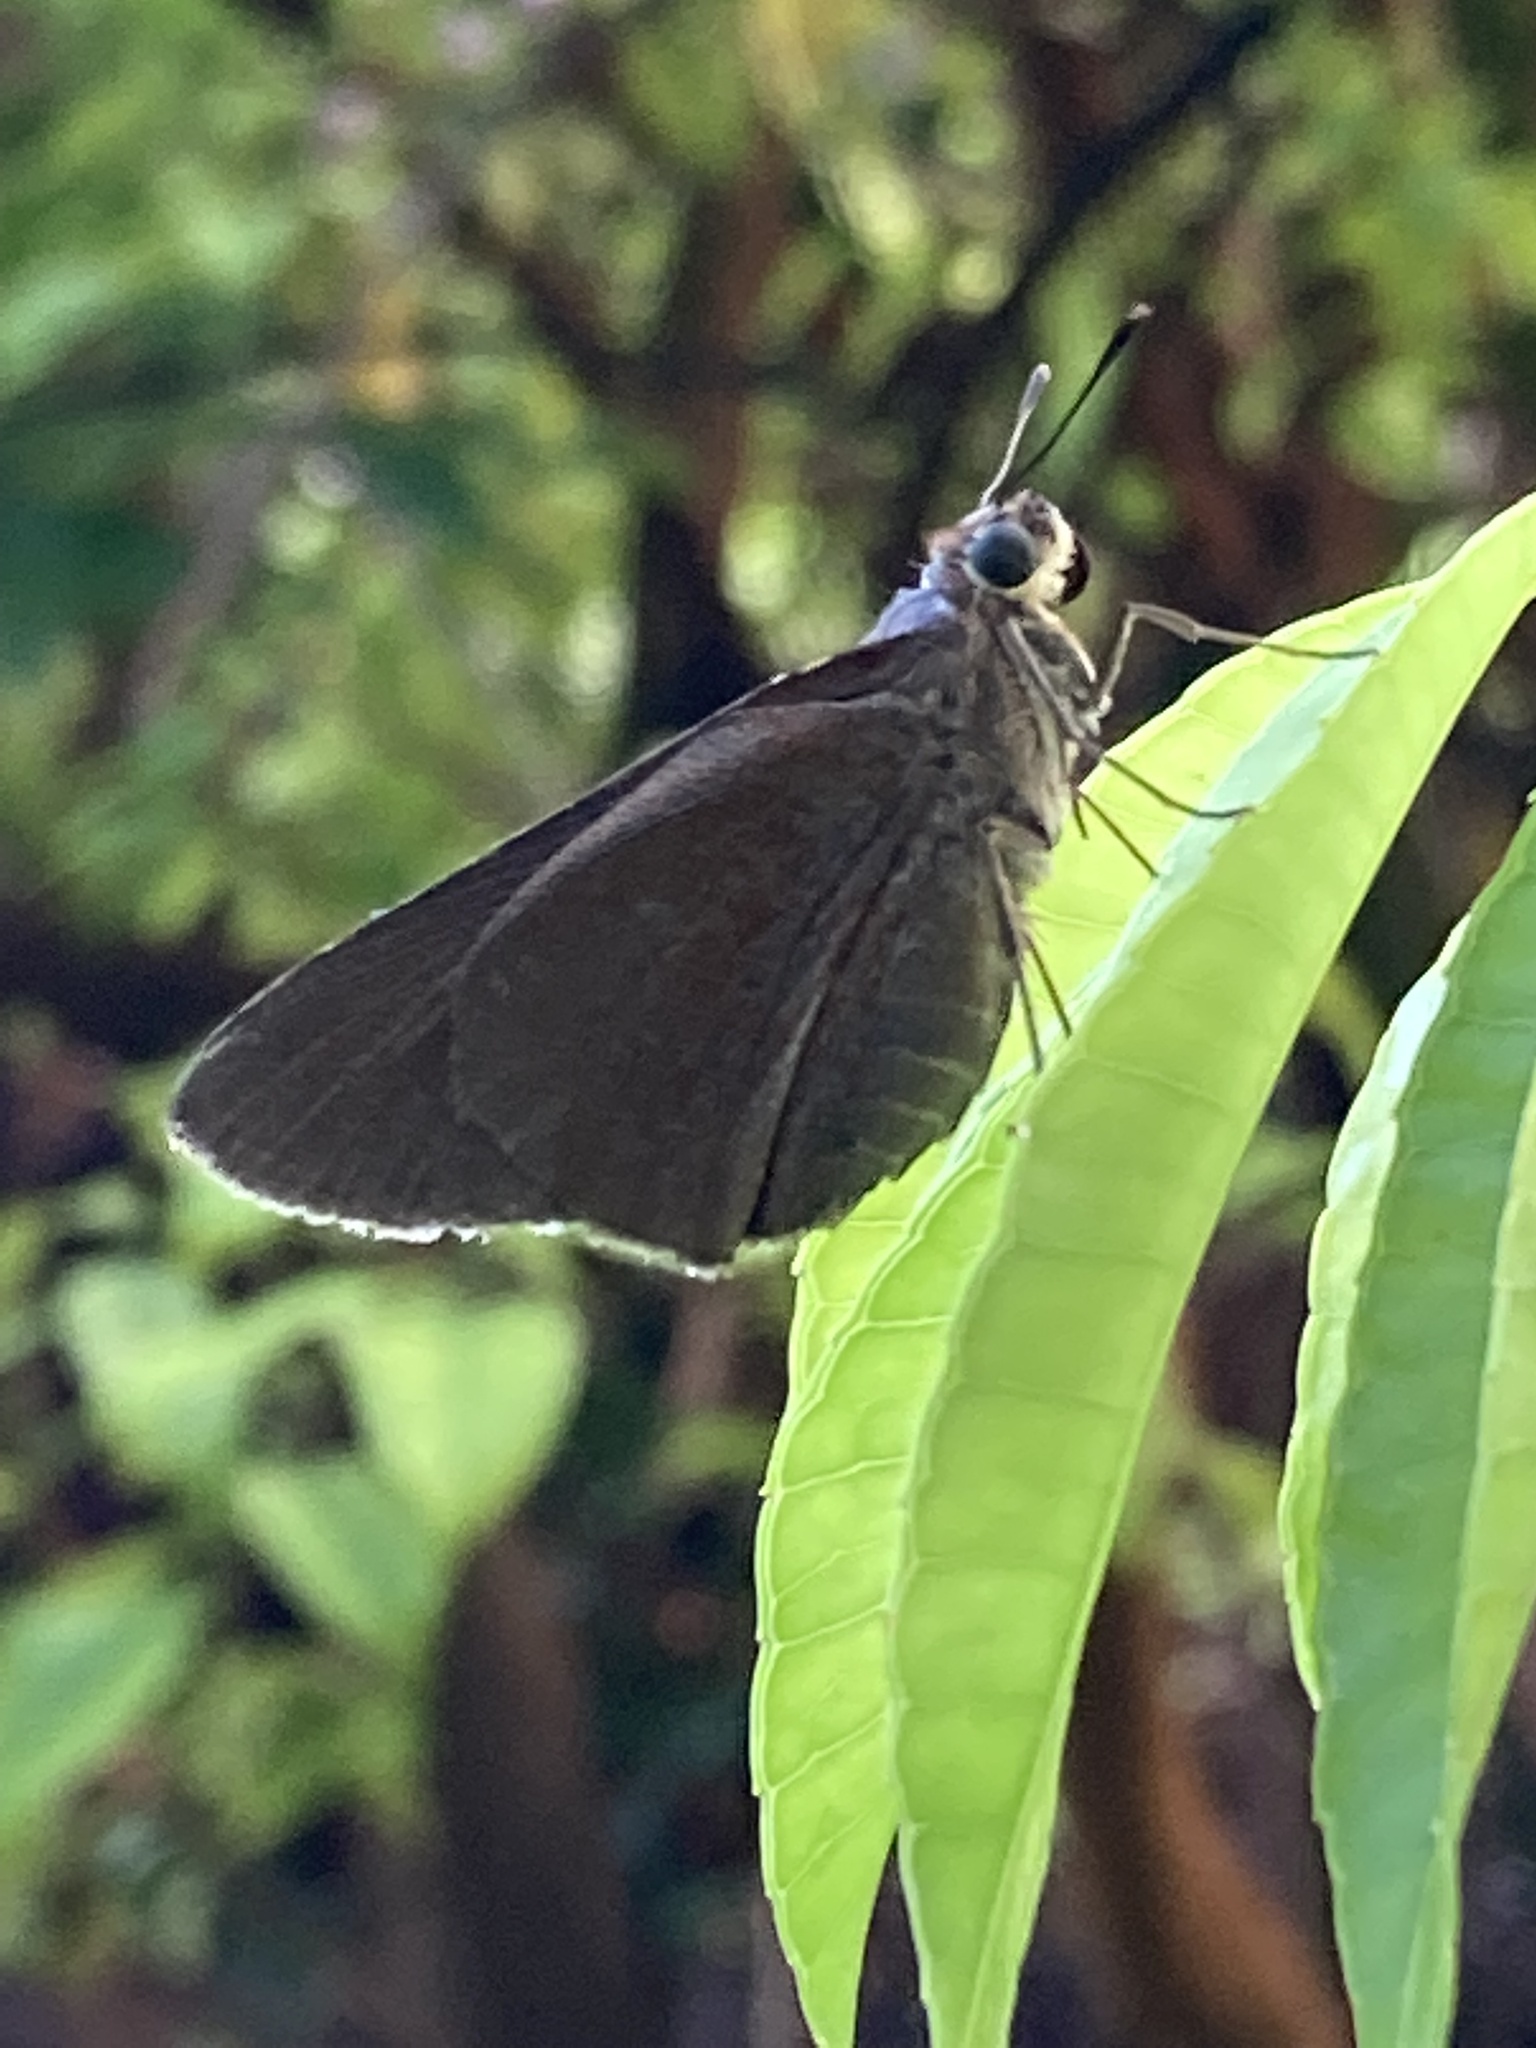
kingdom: Animalia
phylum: Arthropoda
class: Insecta
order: Lepidoptera
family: Hesperiidae
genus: Asbolis
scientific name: Asbolis capucinus
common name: Monk skipper
